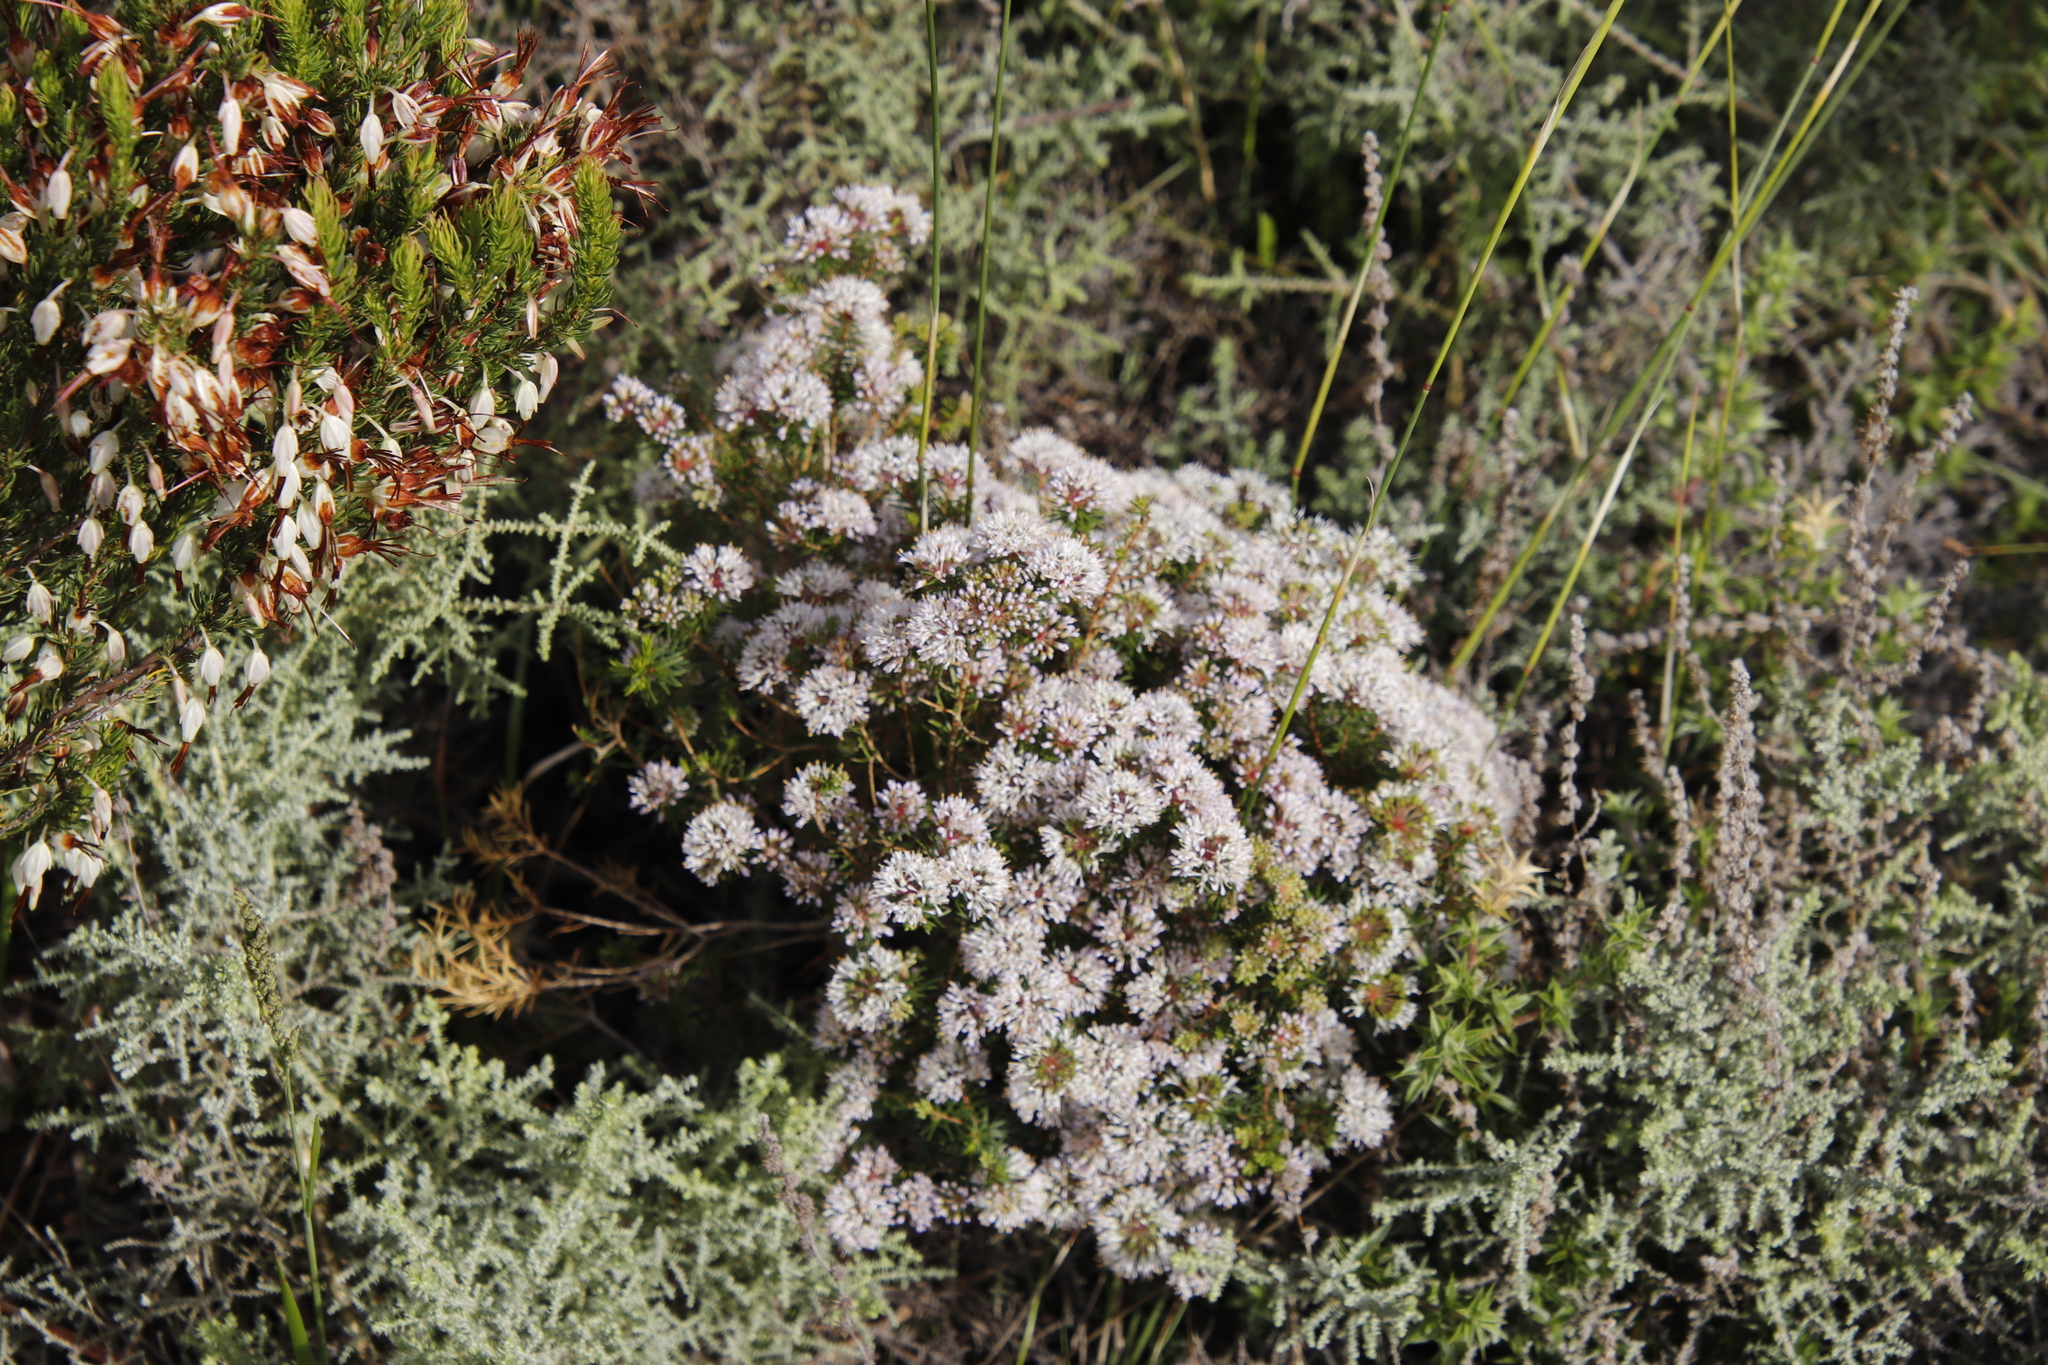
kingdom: Plantae
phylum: Tracheophyta
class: Magnoliopsida
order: Sapindales
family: Rutaceae
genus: Agathosma
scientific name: Agathosma capensis
